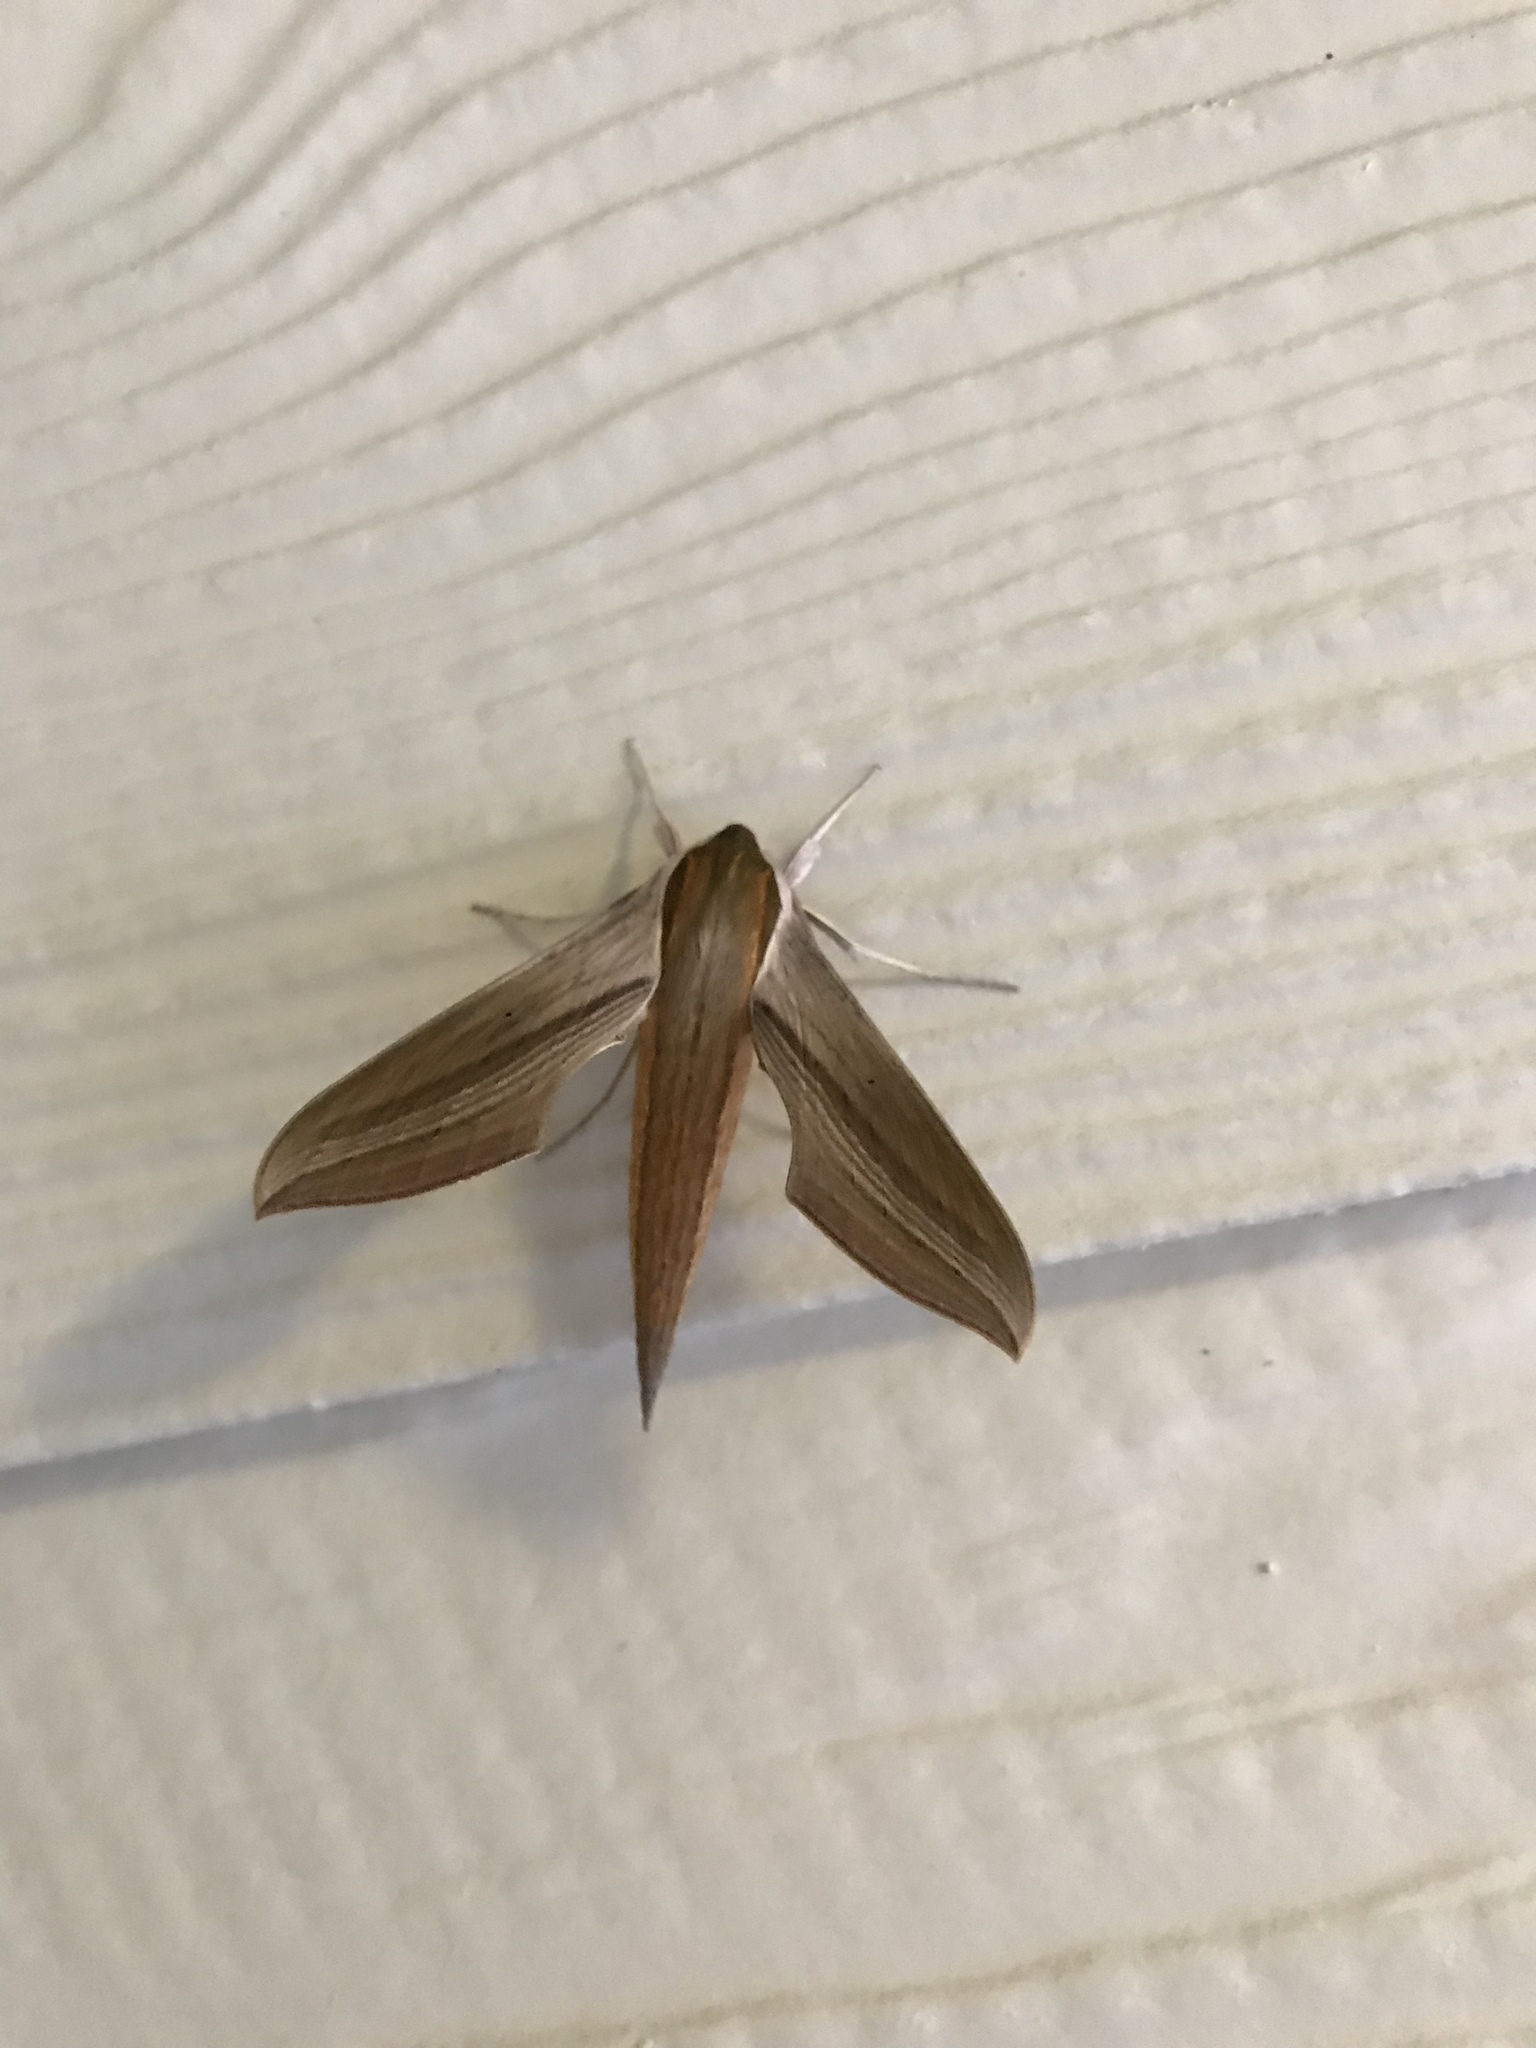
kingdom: Animalia
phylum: Arthropoda
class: Insecta
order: Lepidoptera
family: Sphingidae
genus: Xylophanes
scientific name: Xylophanes tersa
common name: Tersa sphinx
